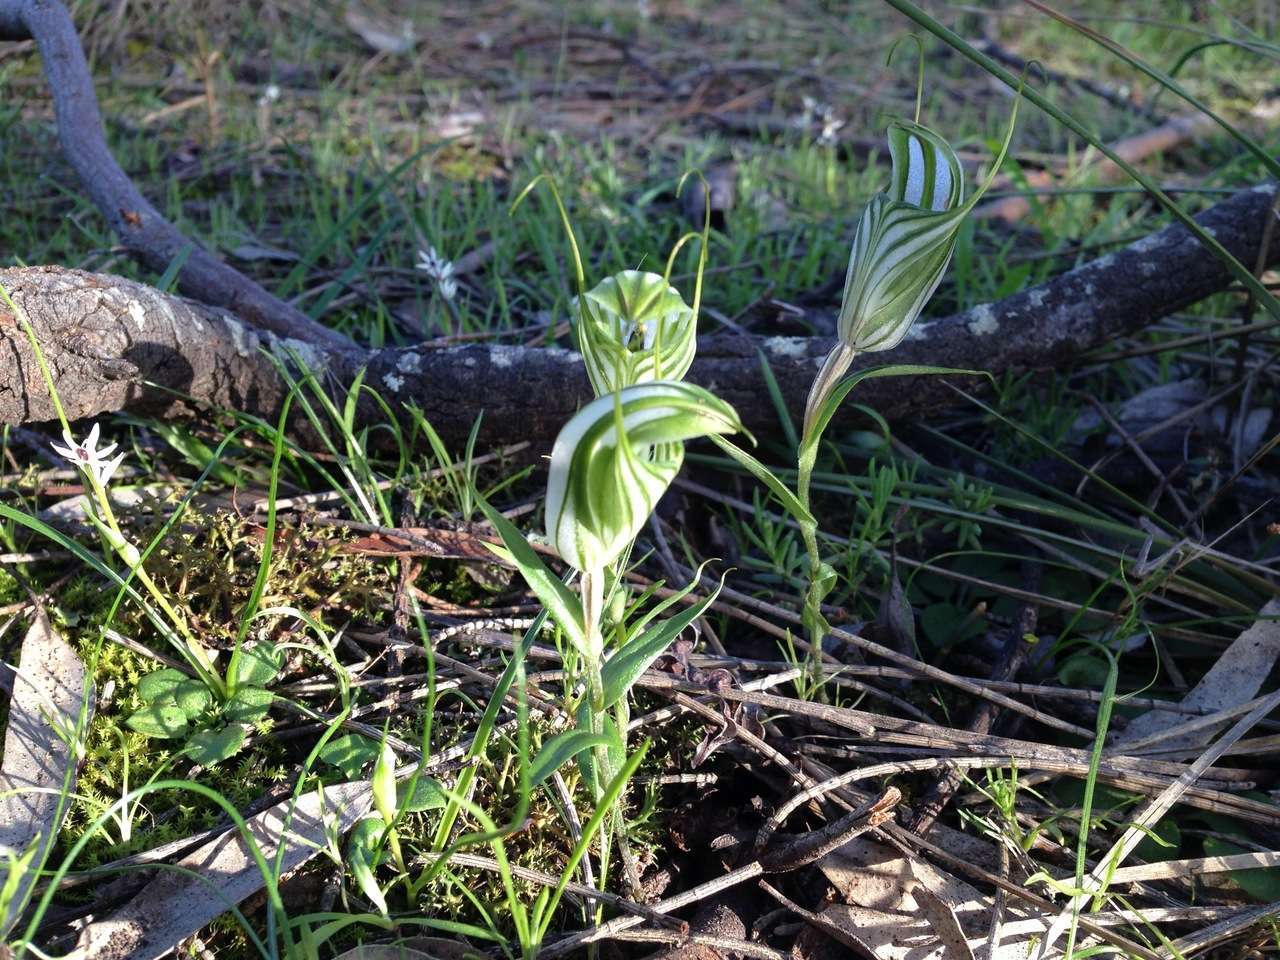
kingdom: Plantae
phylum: Tracheophyta
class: Liliopsida
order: Asparagales
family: Orchidaceae
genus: Pterostylis
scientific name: Pterostylis robusta
